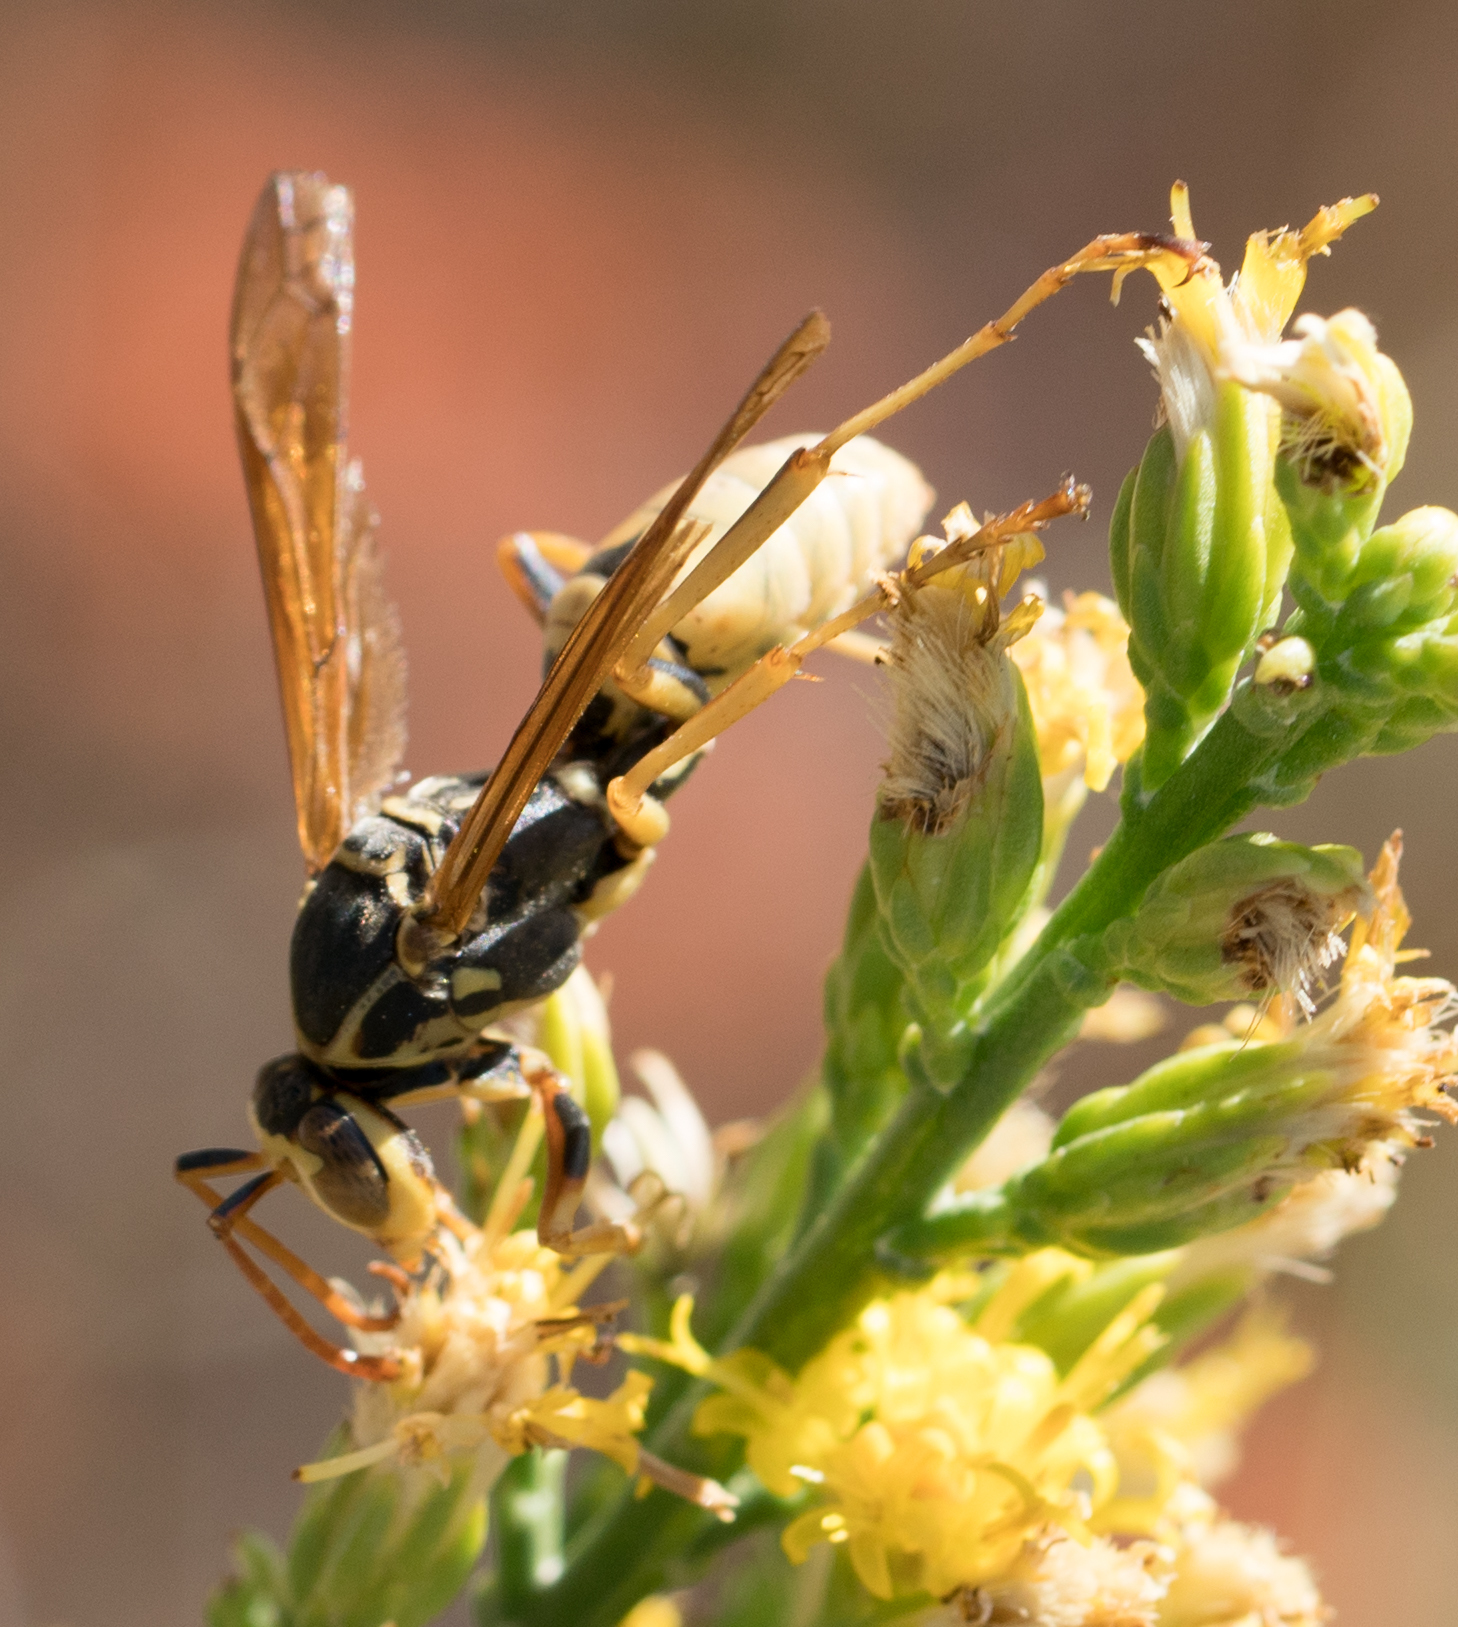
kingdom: Animalia
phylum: Arthropoda
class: Insecta
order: Hymenoptera
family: Eumenidae
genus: Polistes
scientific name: Polistes aurifer
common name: Paper wasp
